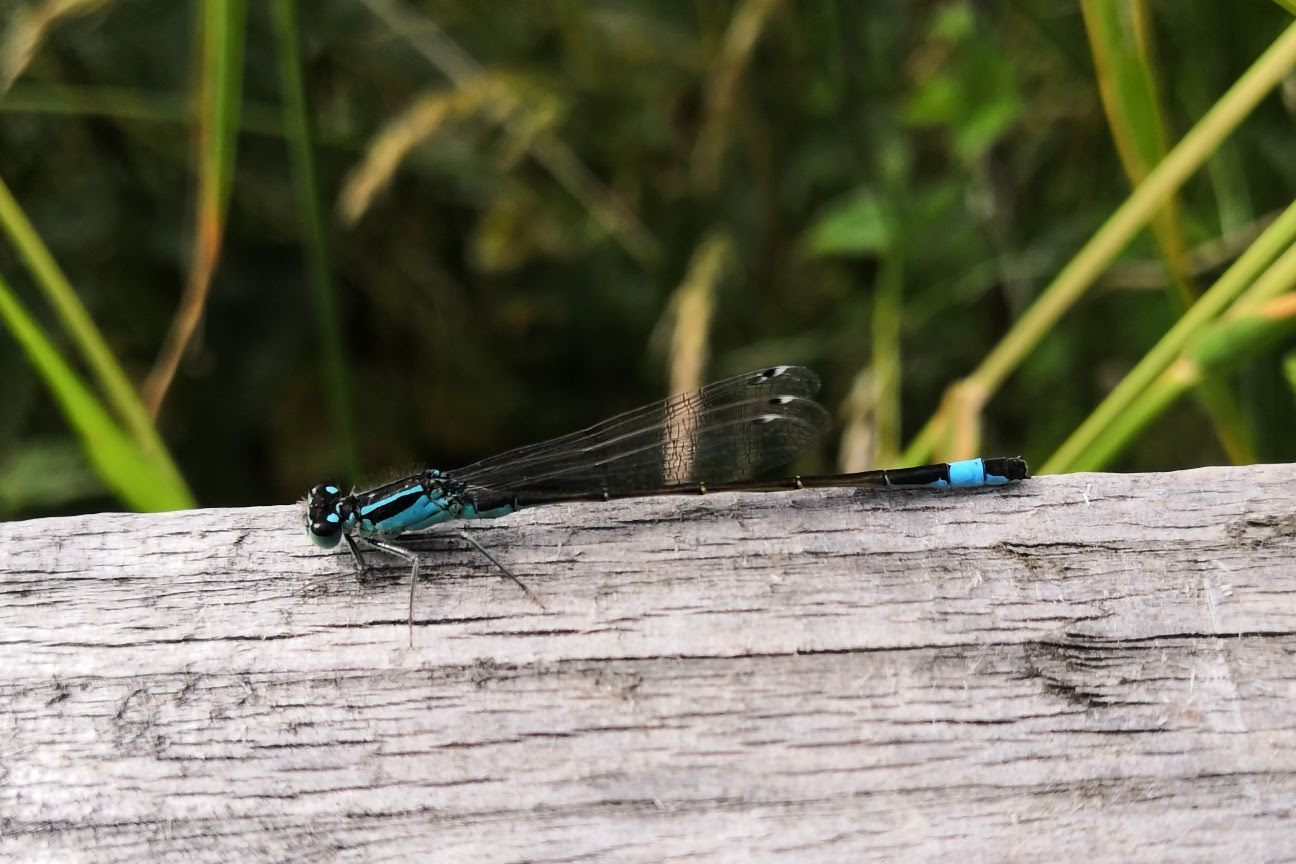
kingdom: Animalia
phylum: Arthropoda
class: Insecta
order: Odonata
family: Coenagrionidae
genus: Ischnura
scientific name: Ischnura elegans
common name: Blue-tailed damselfly
